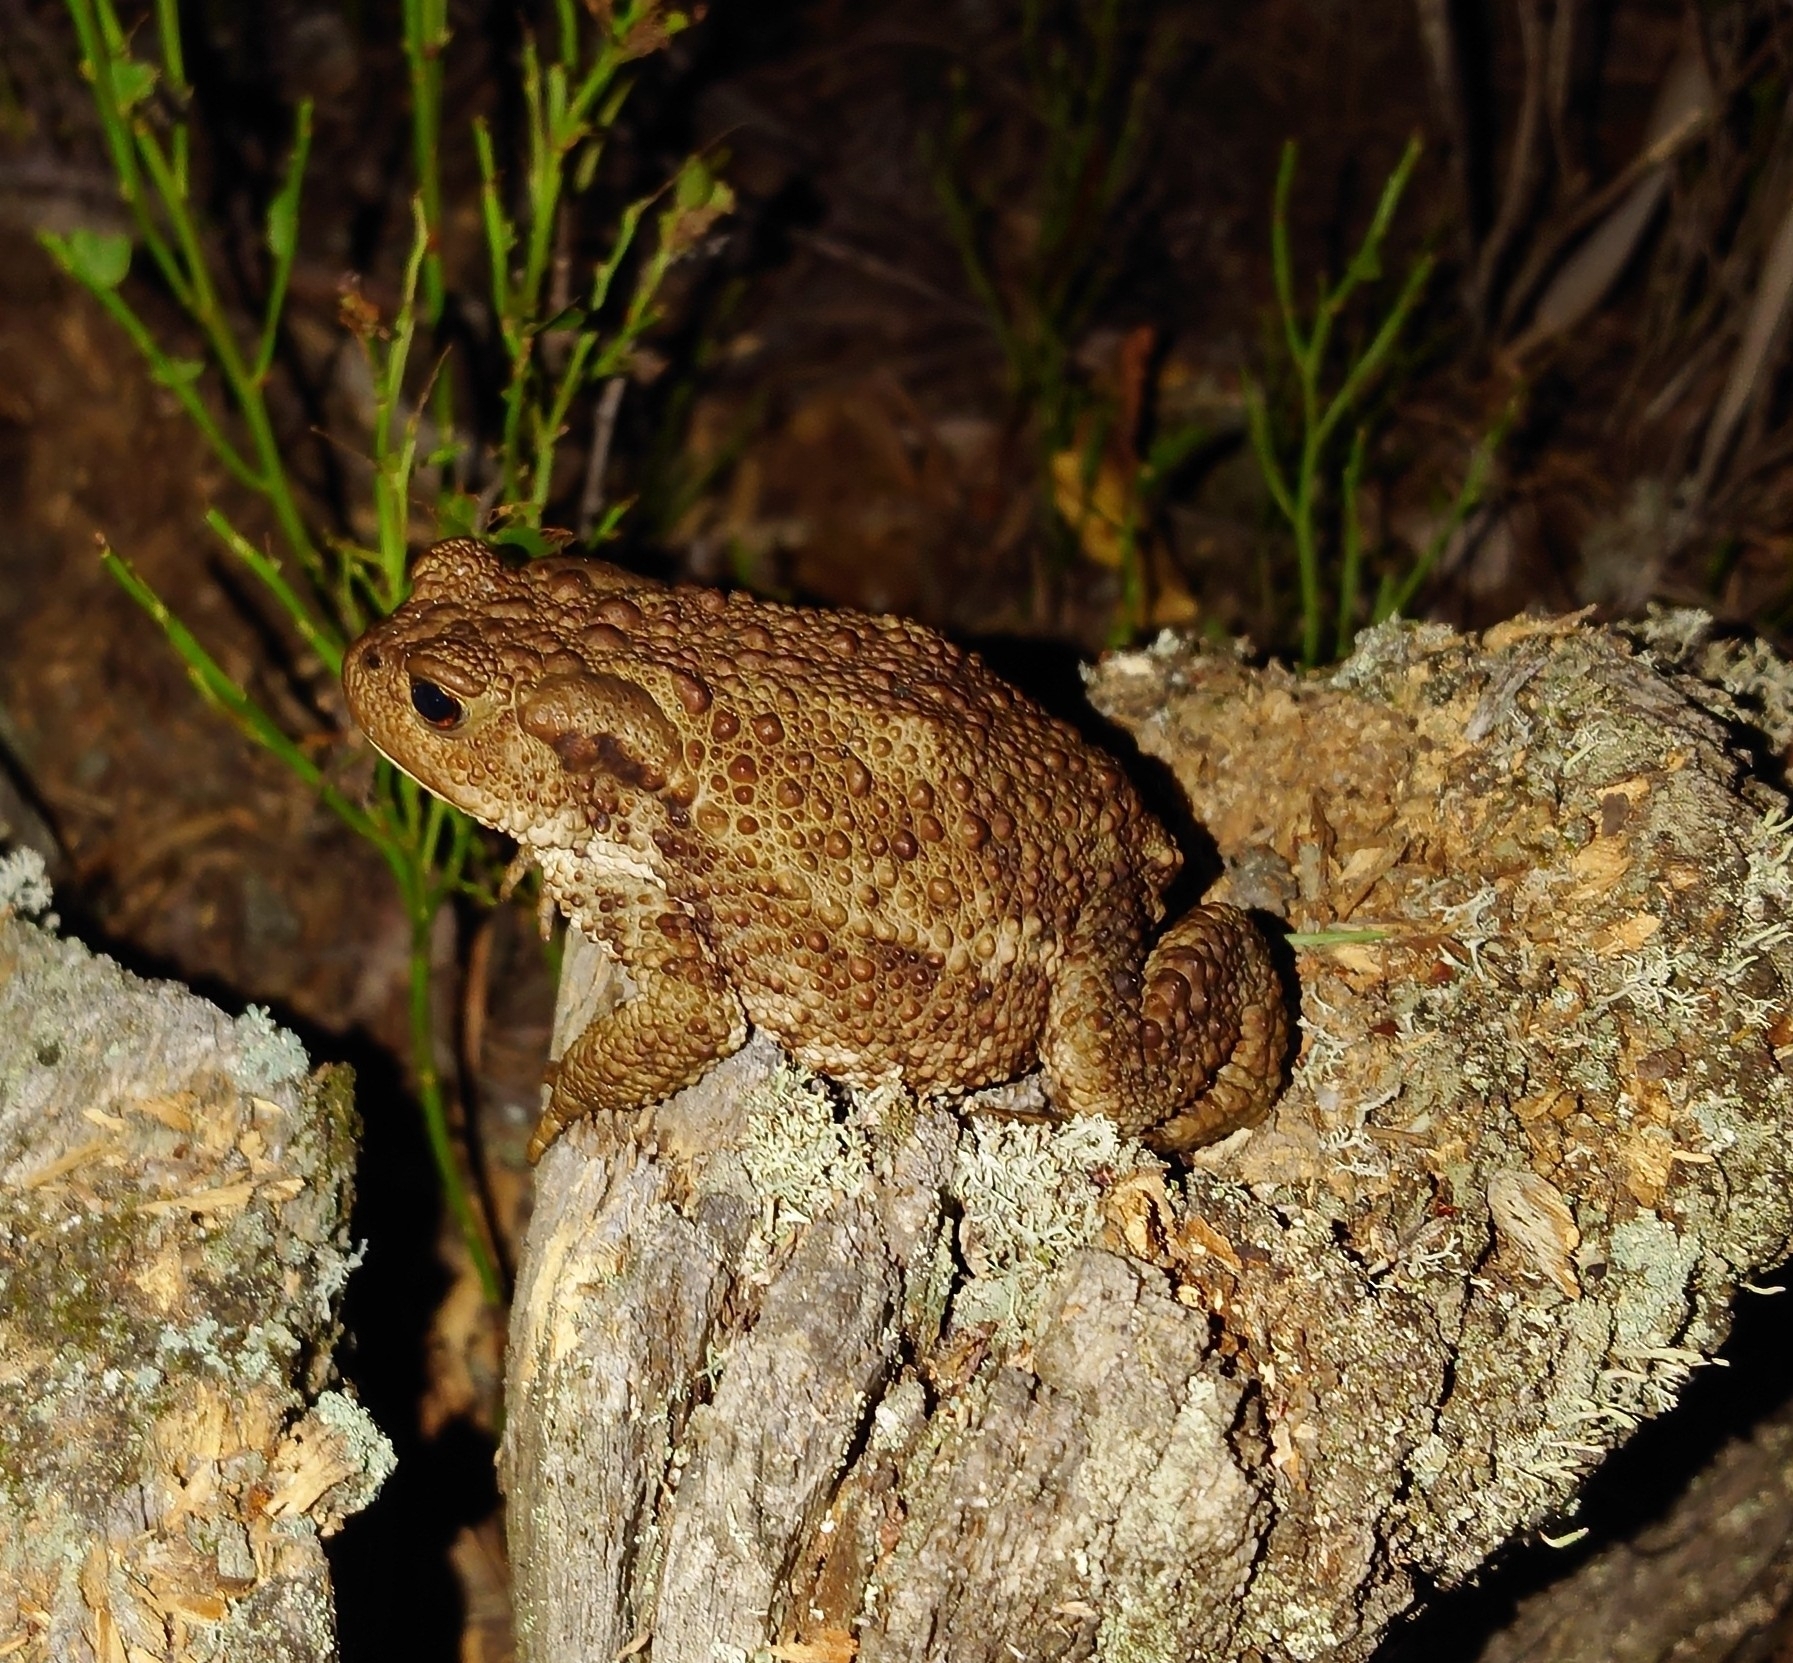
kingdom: Animalia
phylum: Chordata
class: Amphibia
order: Anura
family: Bufonidae
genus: Bufo
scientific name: Bufo bufo
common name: Common toad
